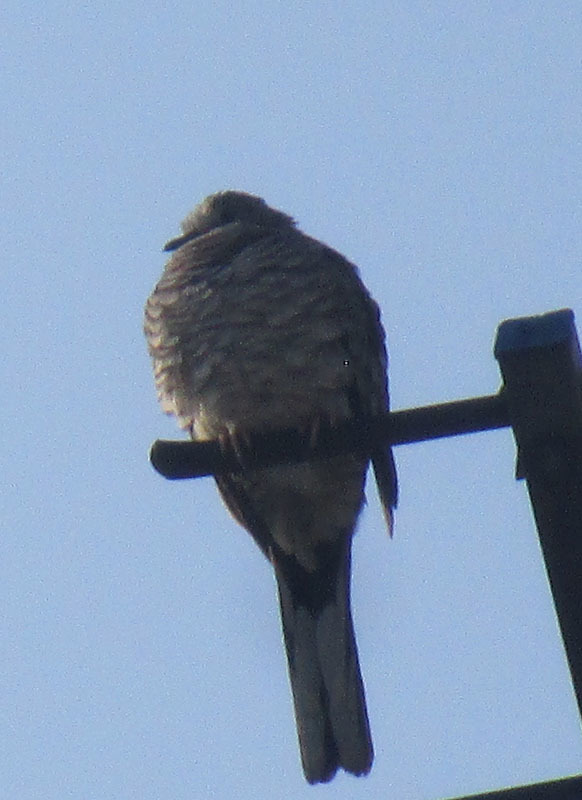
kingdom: Animalia
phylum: Chordata
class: Aves
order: Columbiformes
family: Columbidae
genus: Columbina
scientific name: Columbina inca
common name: Inca dove
